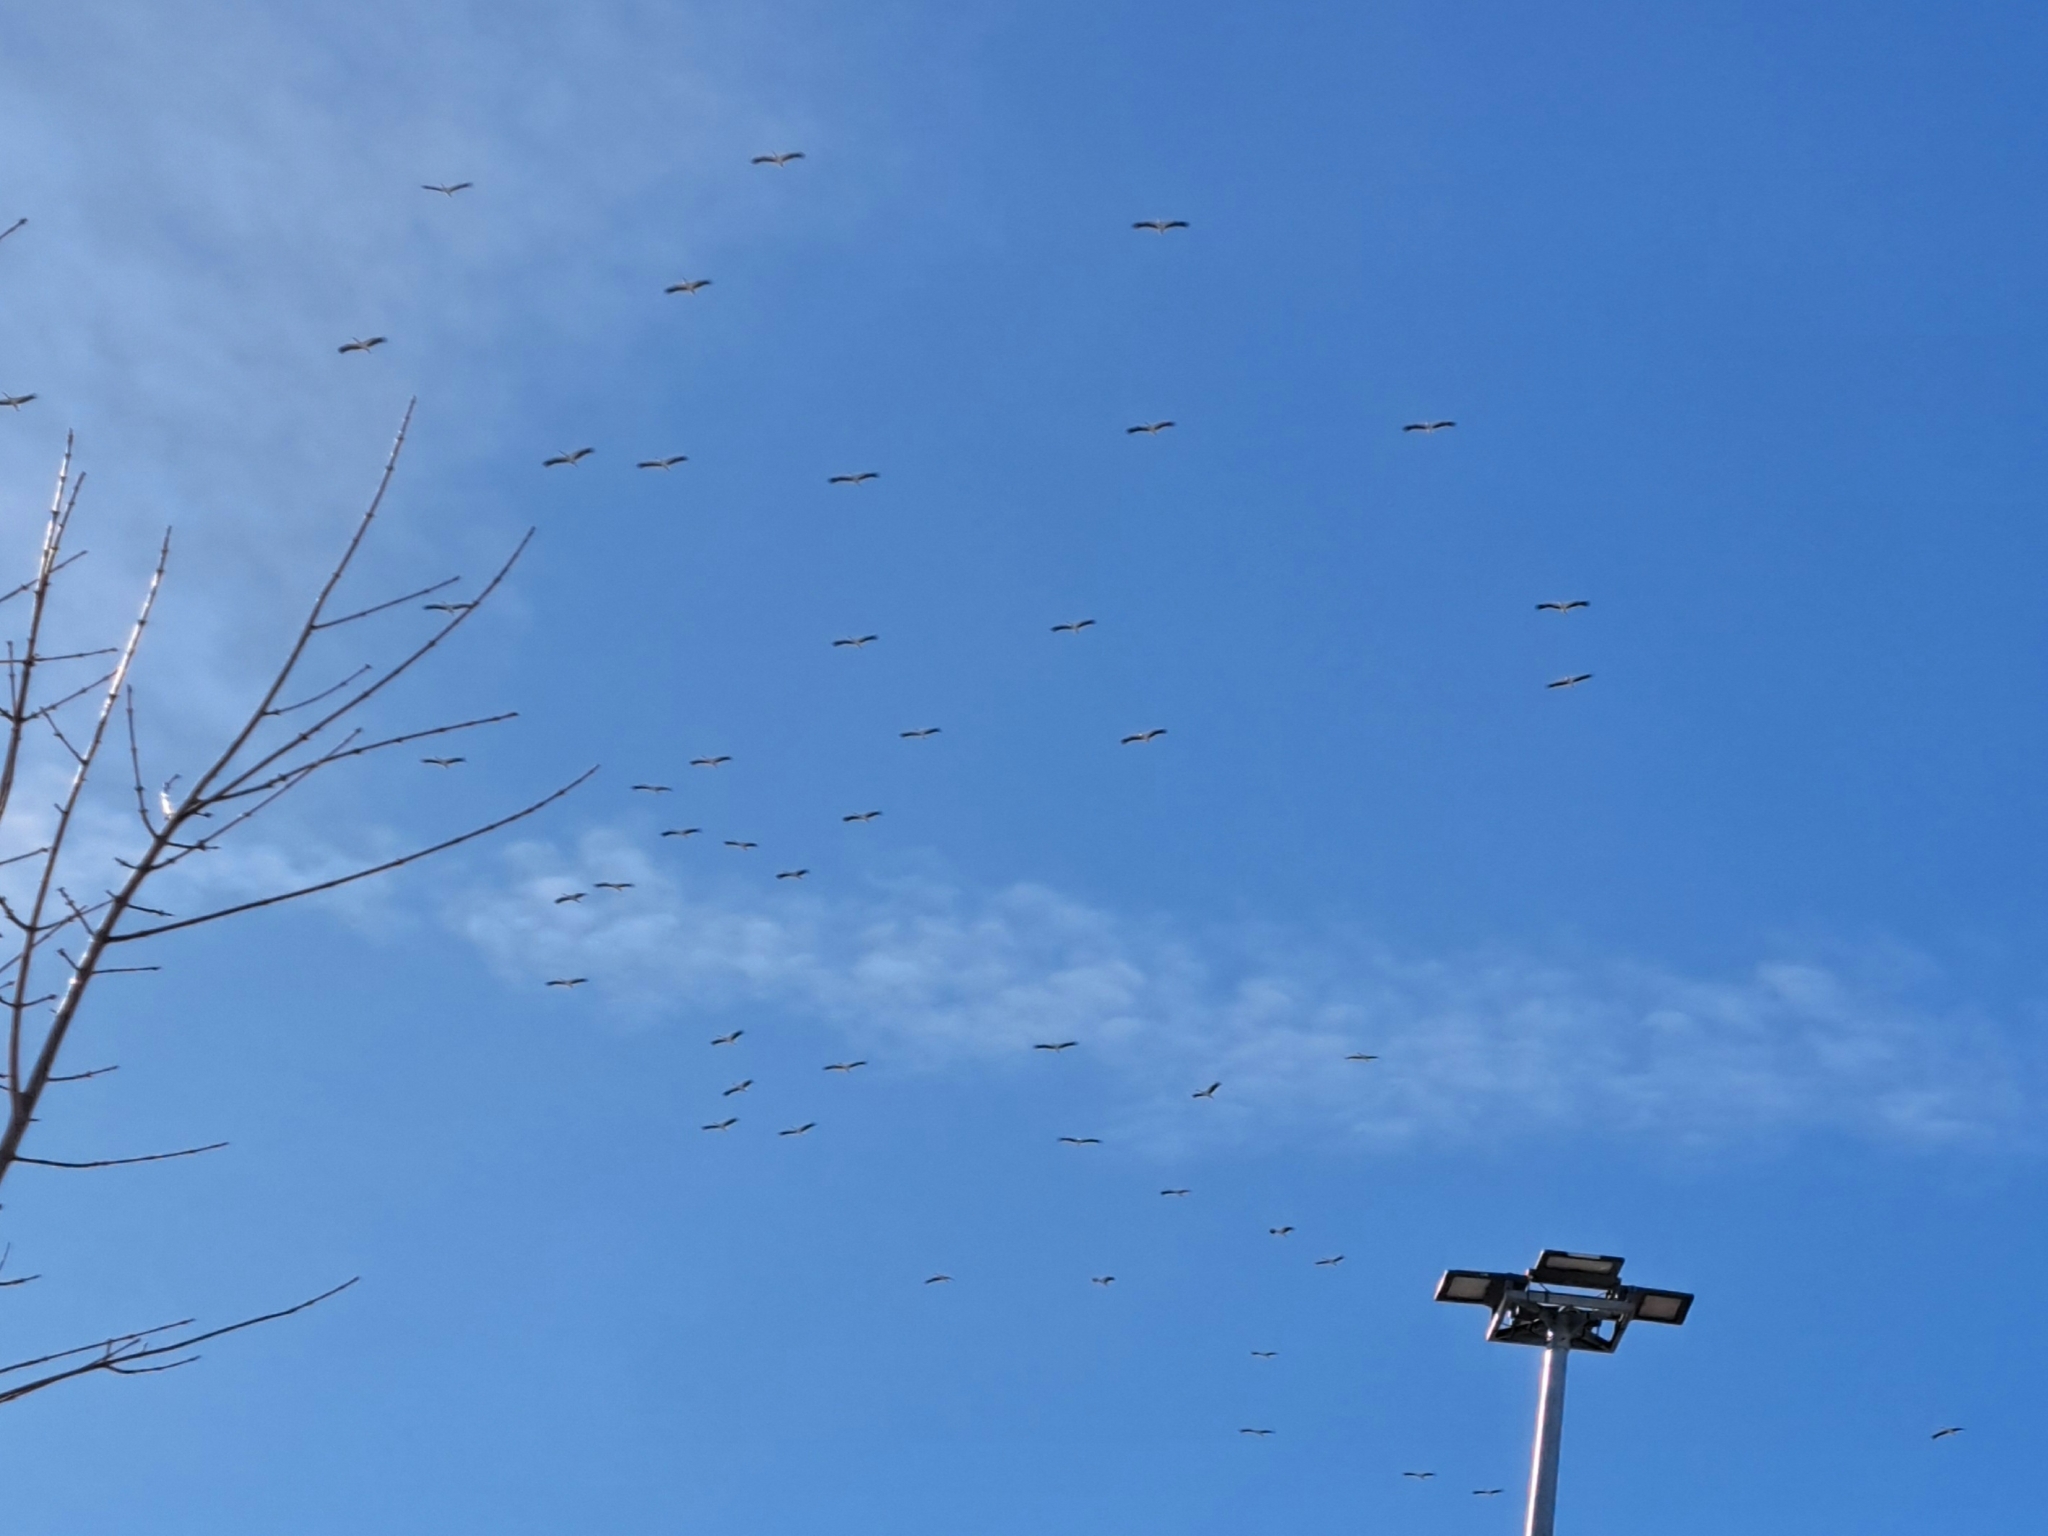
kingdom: Animalia
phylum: Chordata
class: Aves
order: Ciconiiformes
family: Ciconiidae
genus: Ciconia
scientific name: Ciconia ciconia
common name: White stork
